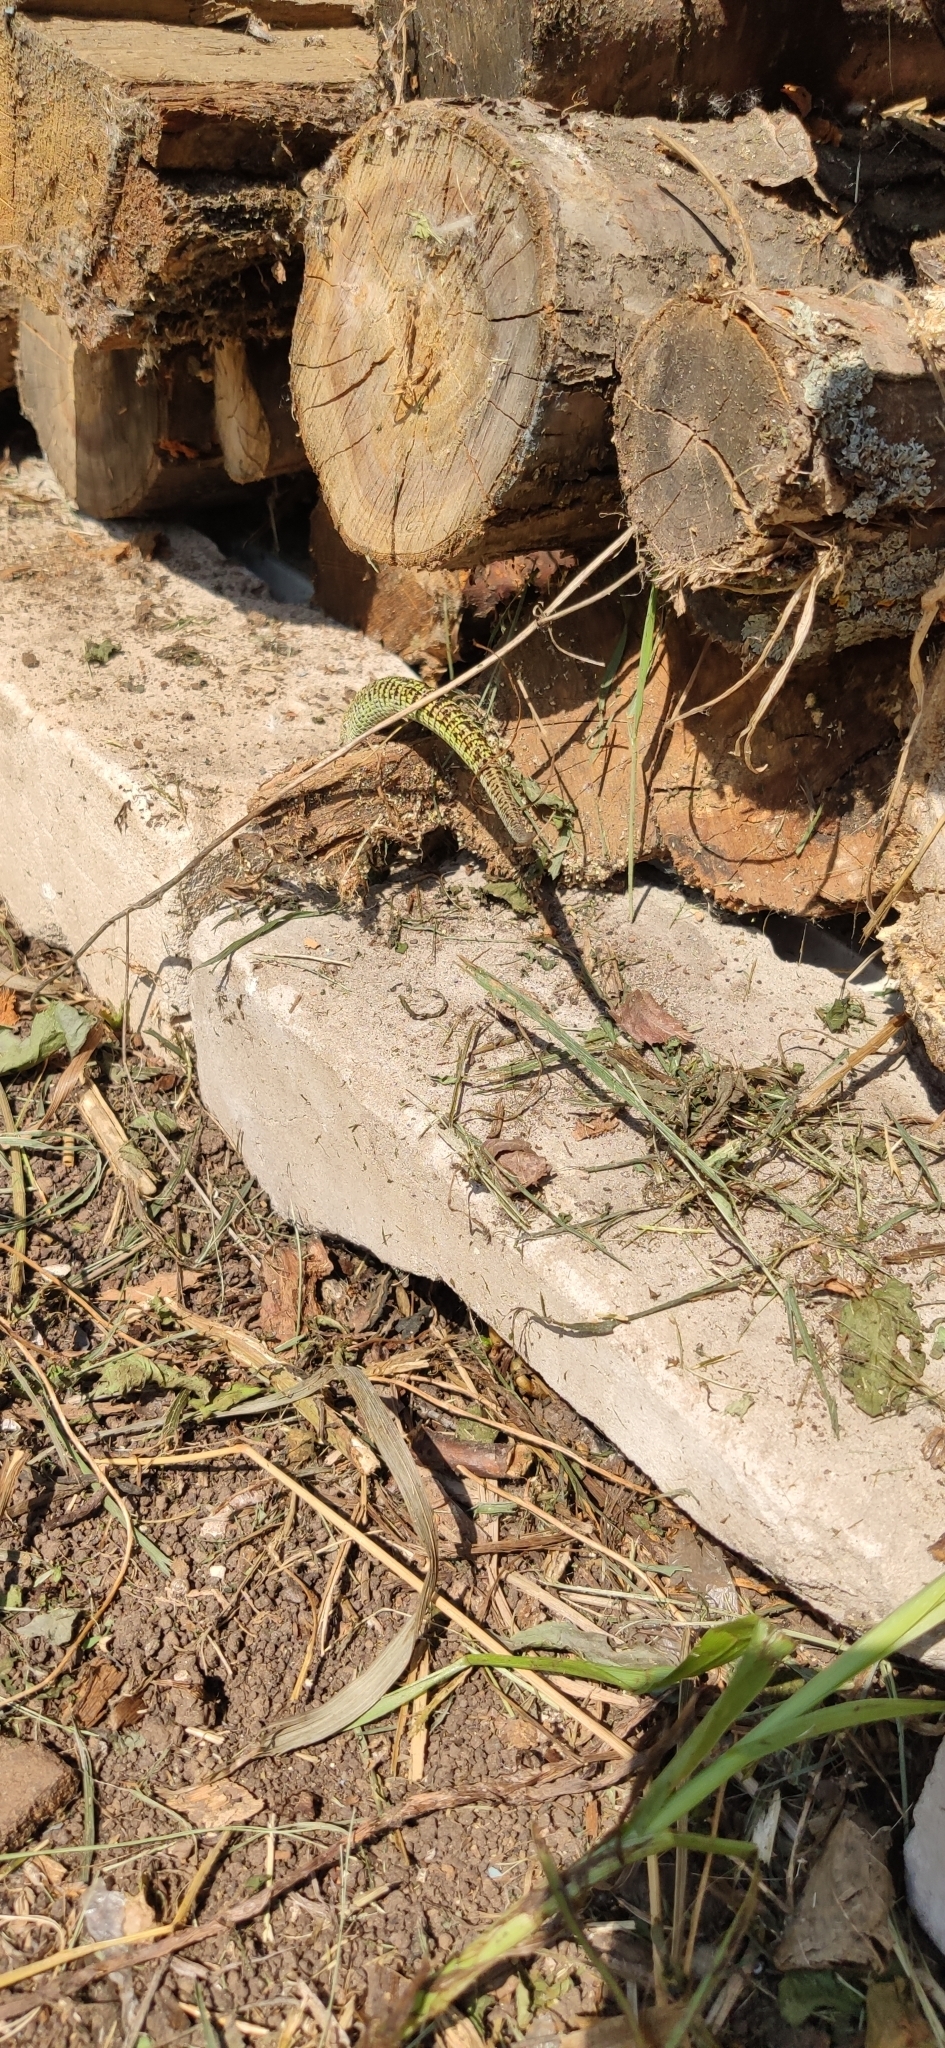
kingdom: Animalia
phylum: Chordata
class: Squamata
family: Lacertidae
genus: Lacerta
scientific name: Lacerta agilis
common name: Sand lizard
